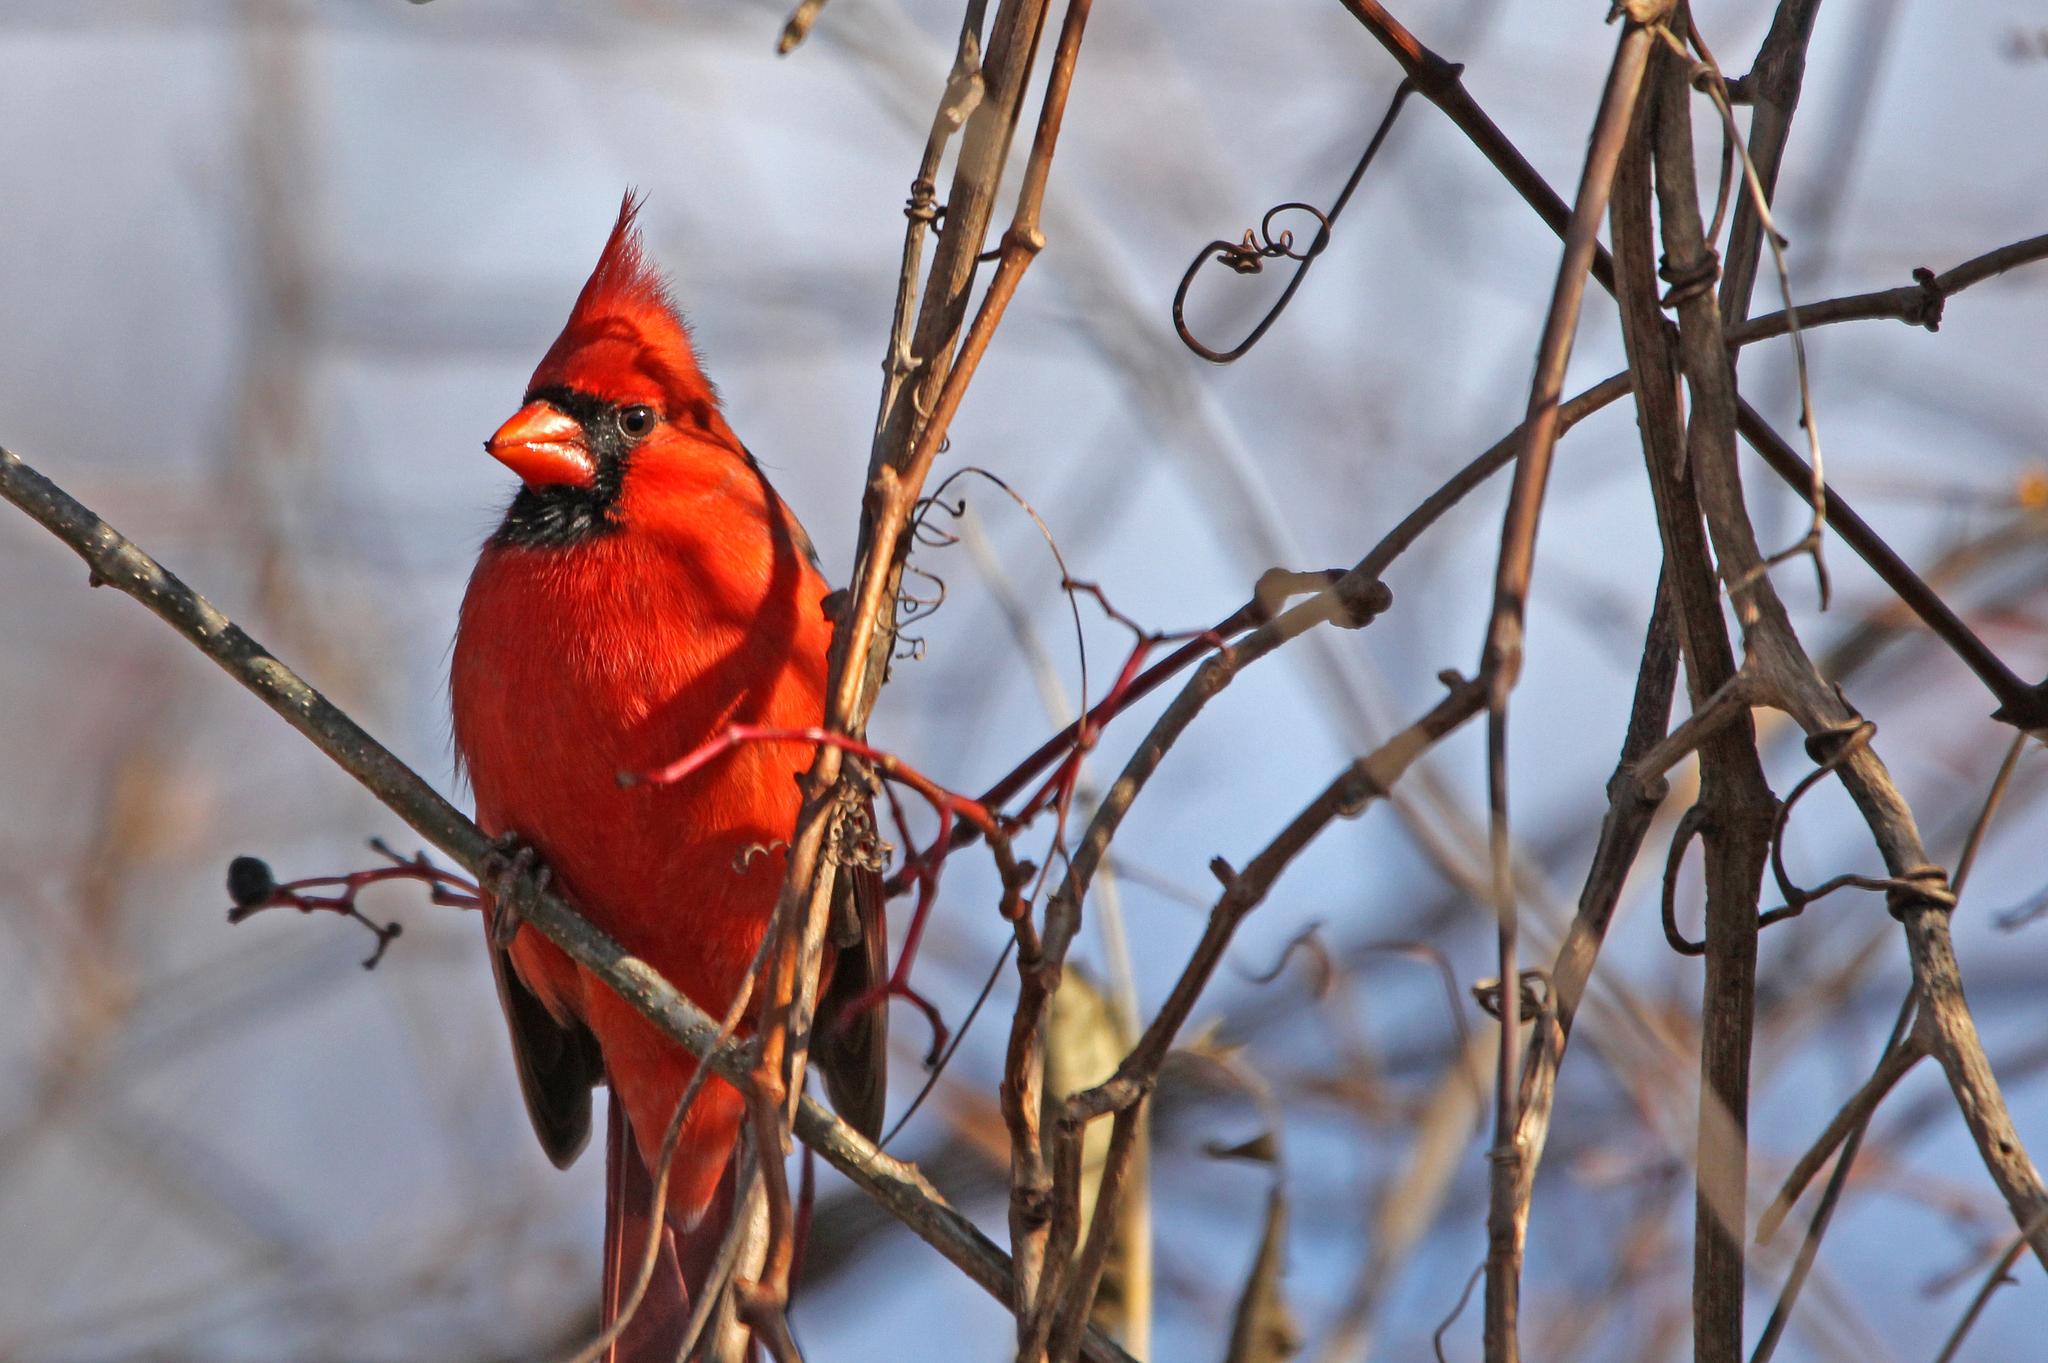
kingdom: Animalia
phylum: Chordata
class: Aves
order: Passeriformes
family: Cardinalidae
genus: Cardinalis
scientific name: Cardinalis cardinalis
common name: Northern cardinal
